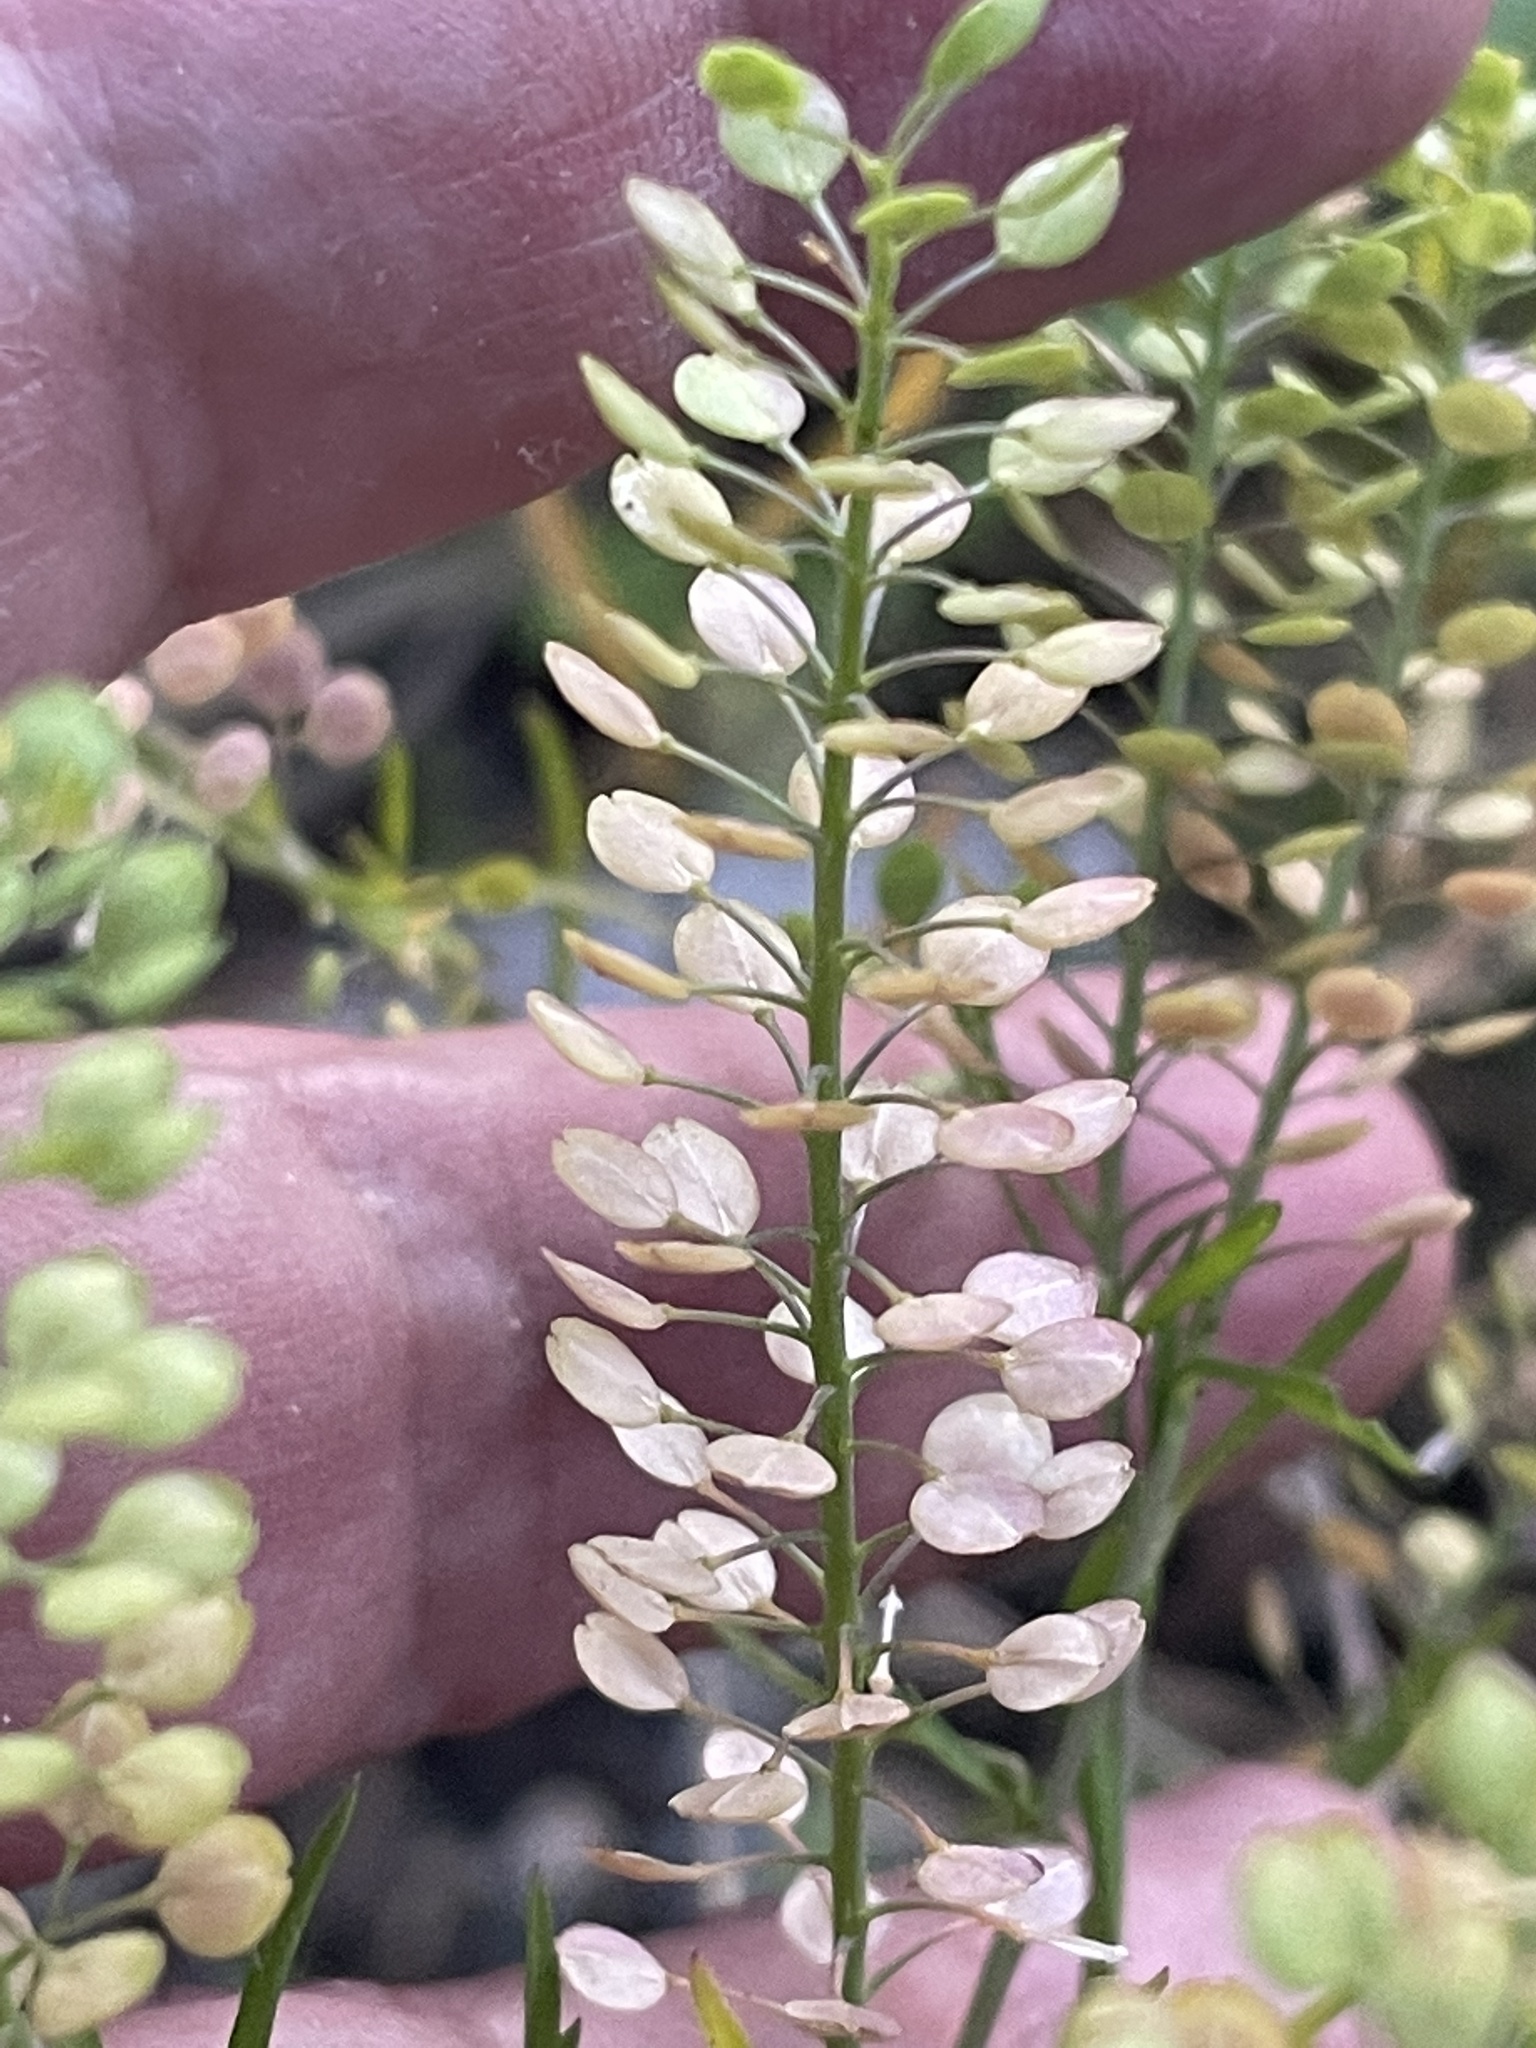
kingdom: Plantae
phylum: Tracheophyta
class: Magnoliopsida
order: Brassicales
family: Brassicaceae
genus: Lepidium
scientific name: Lepidium virginicum
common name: Least pepperwort
